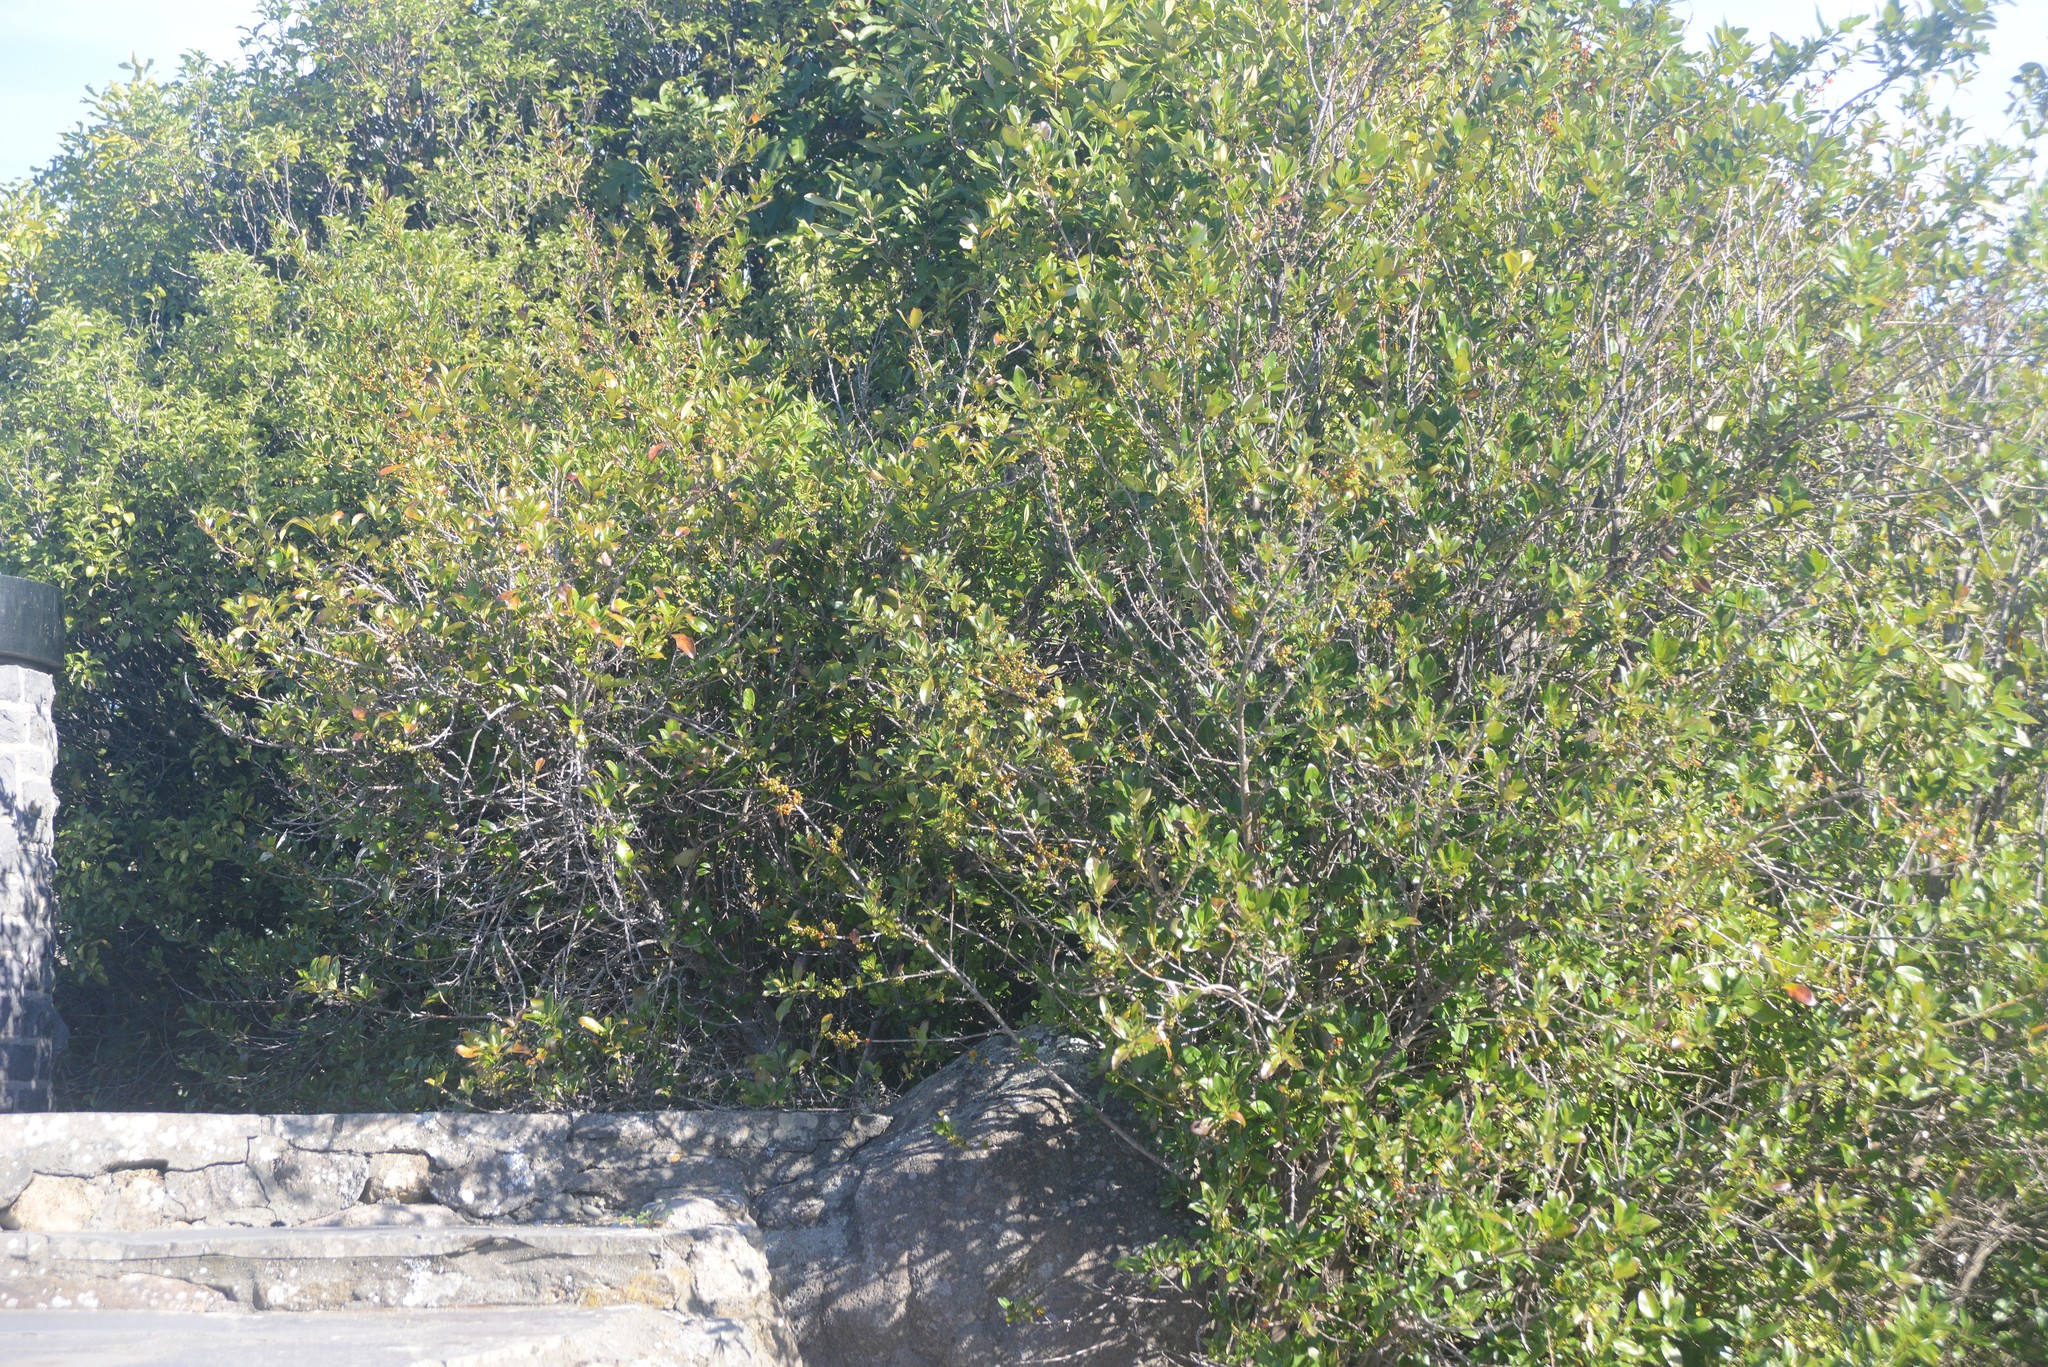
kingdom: Plantae
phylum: Tracheophyta
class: Magnoliopsida
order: Gentianales
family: Rubiaceae
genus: Coprosma
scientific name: Coprosma robusta
